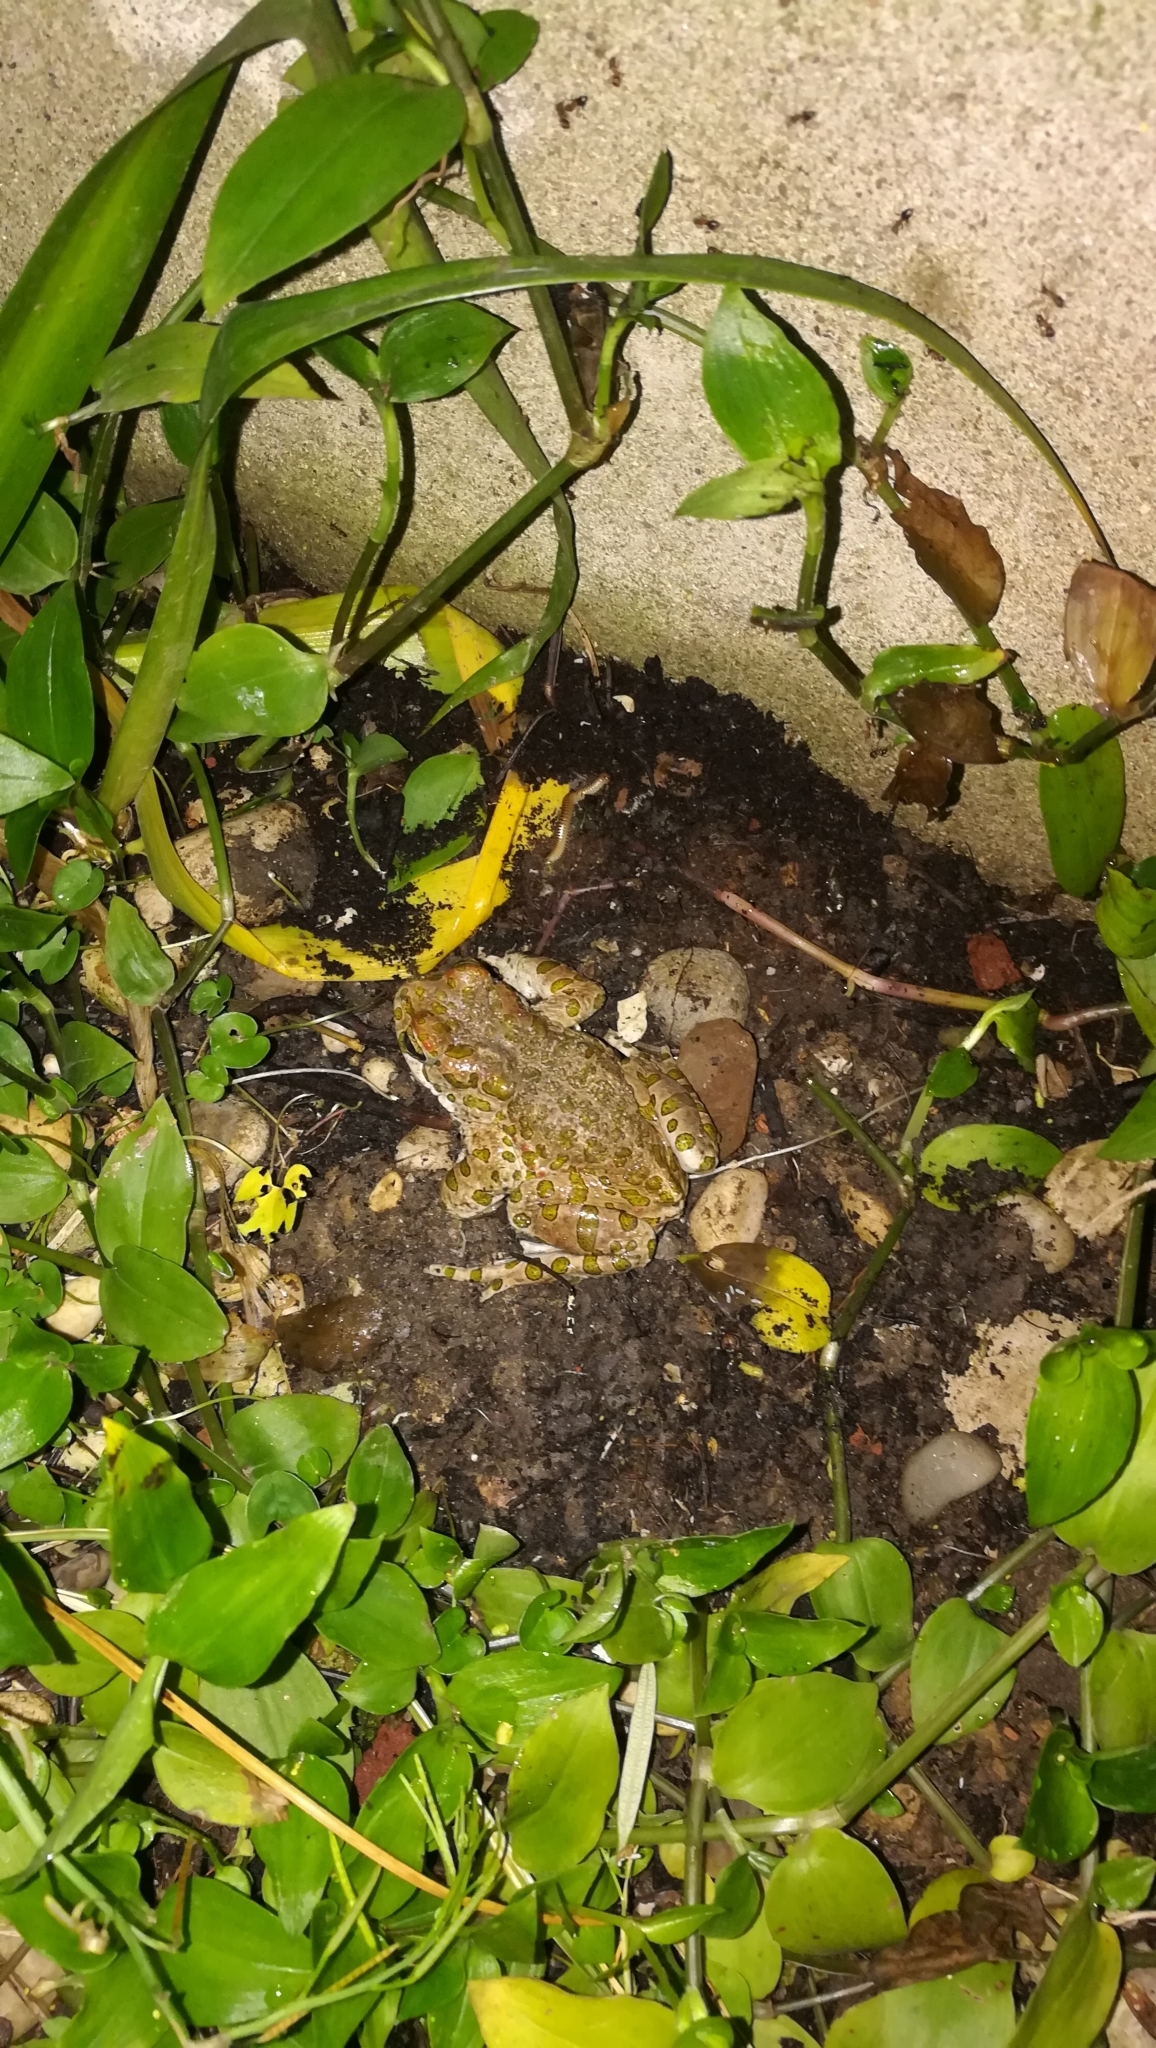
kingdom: Animalia
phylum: Chordata
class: Amphibia
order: Anura
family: Bufonidae
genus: Bufotes
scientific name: Bufotes viridis
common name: European green toad
